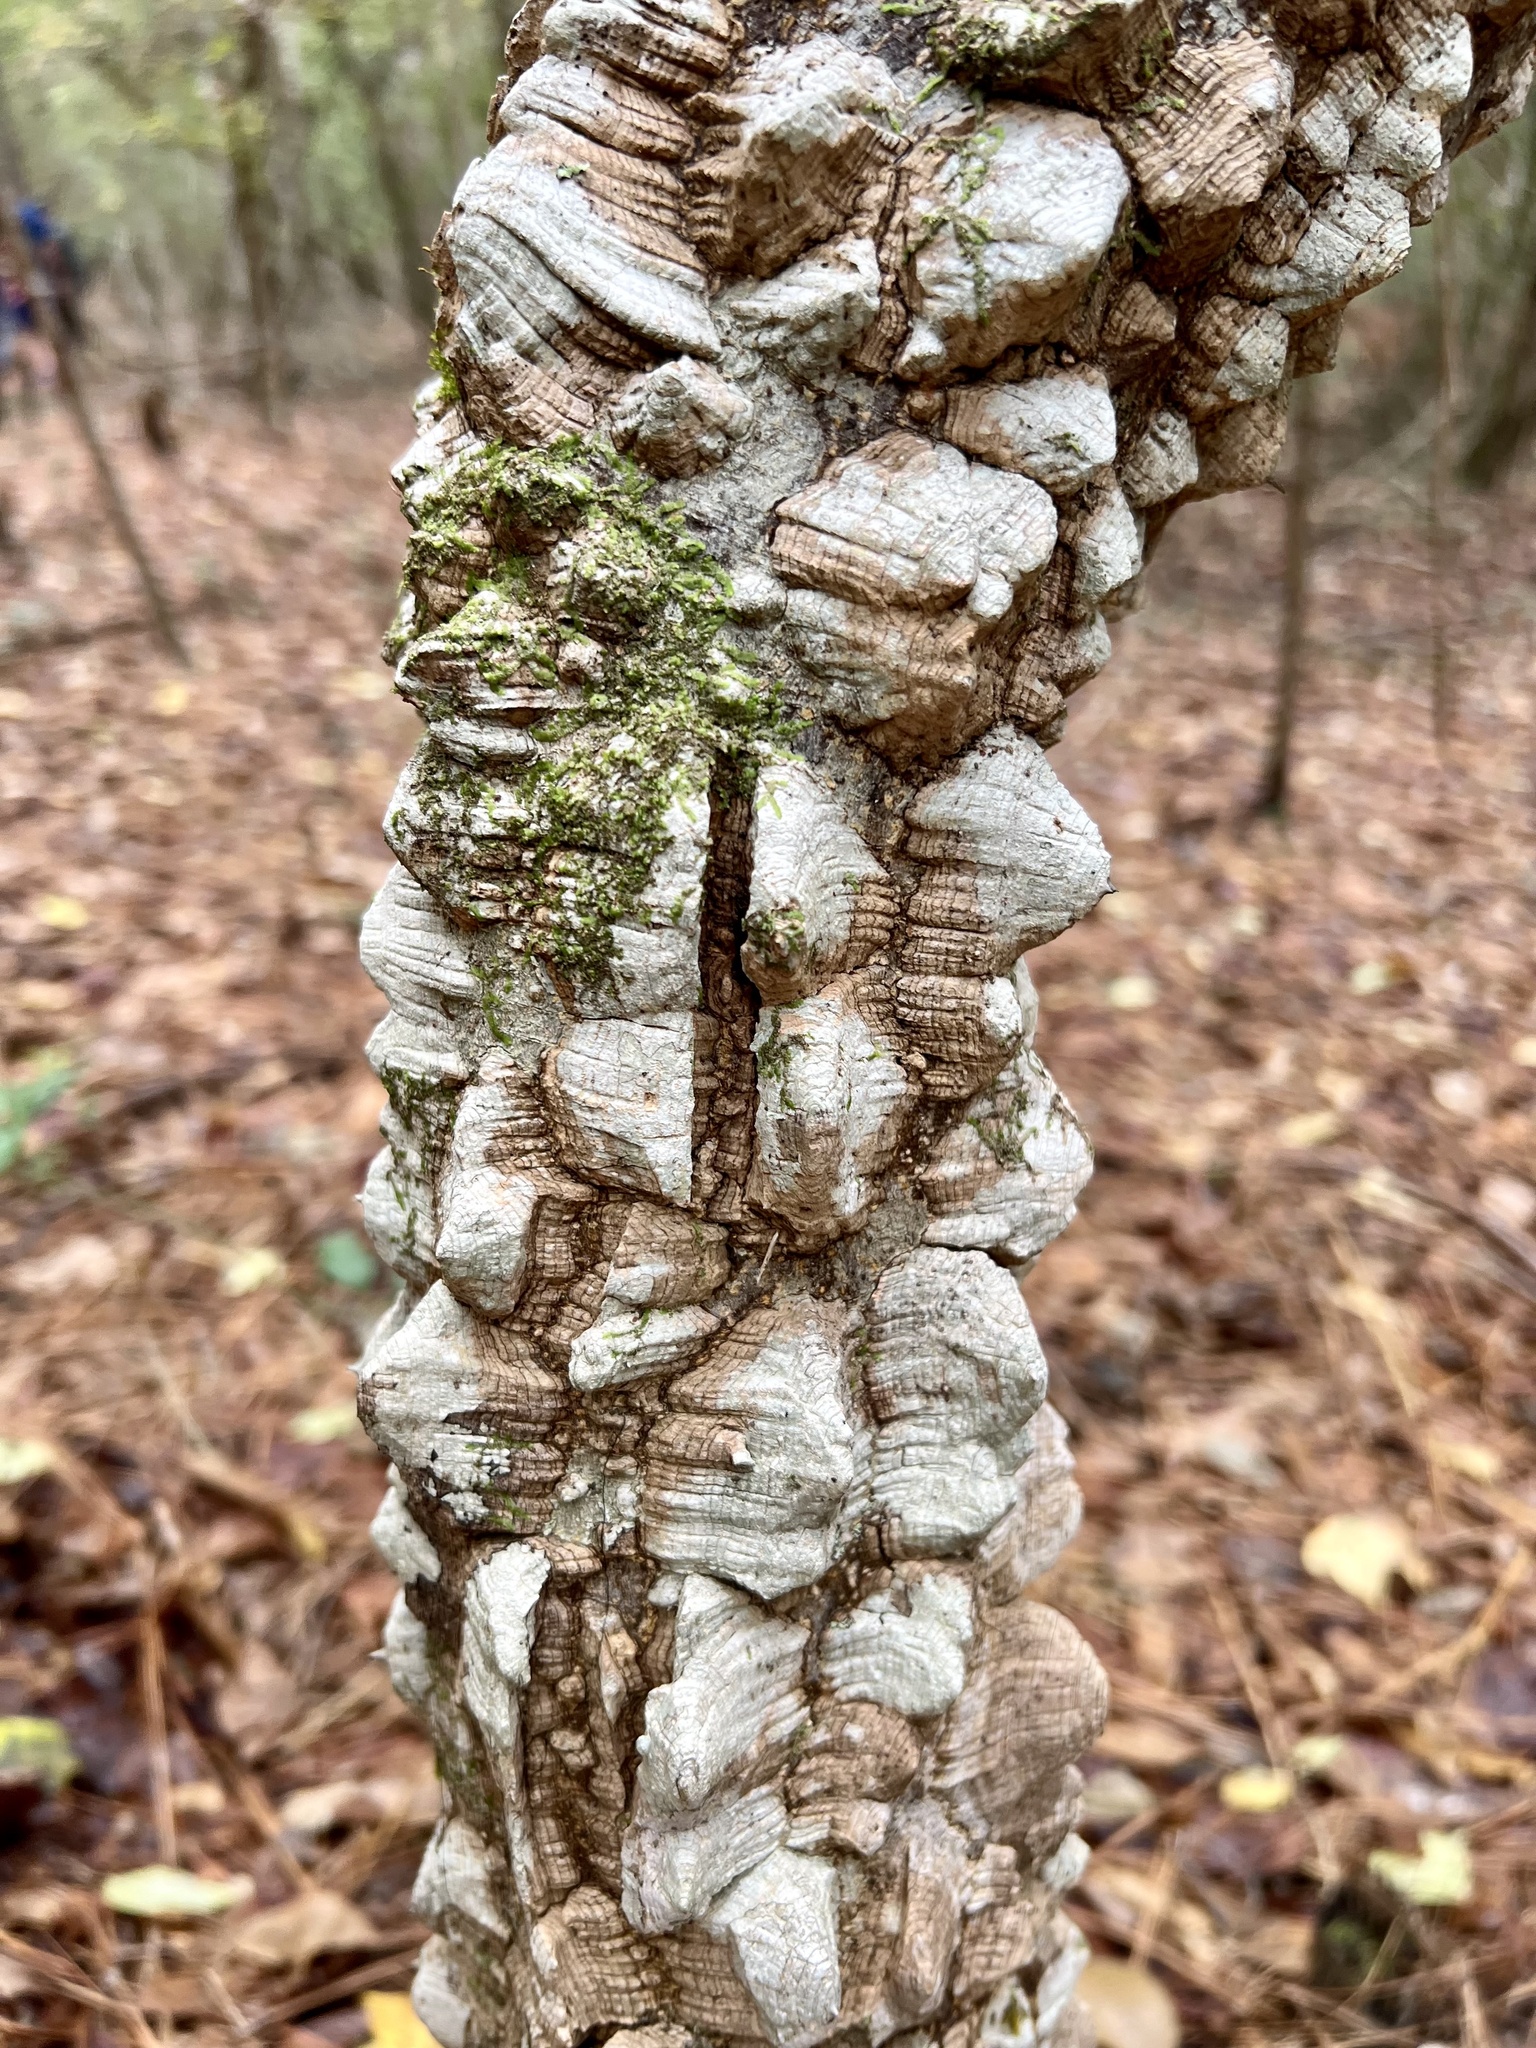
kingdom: Plantae
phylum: Tracheophyta
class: Magnoliopsida
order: Sapindales
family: Rutaceae
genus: Zanthoxylum
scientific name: Zanthoxylum clava-herculis
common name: Hercules'-club
